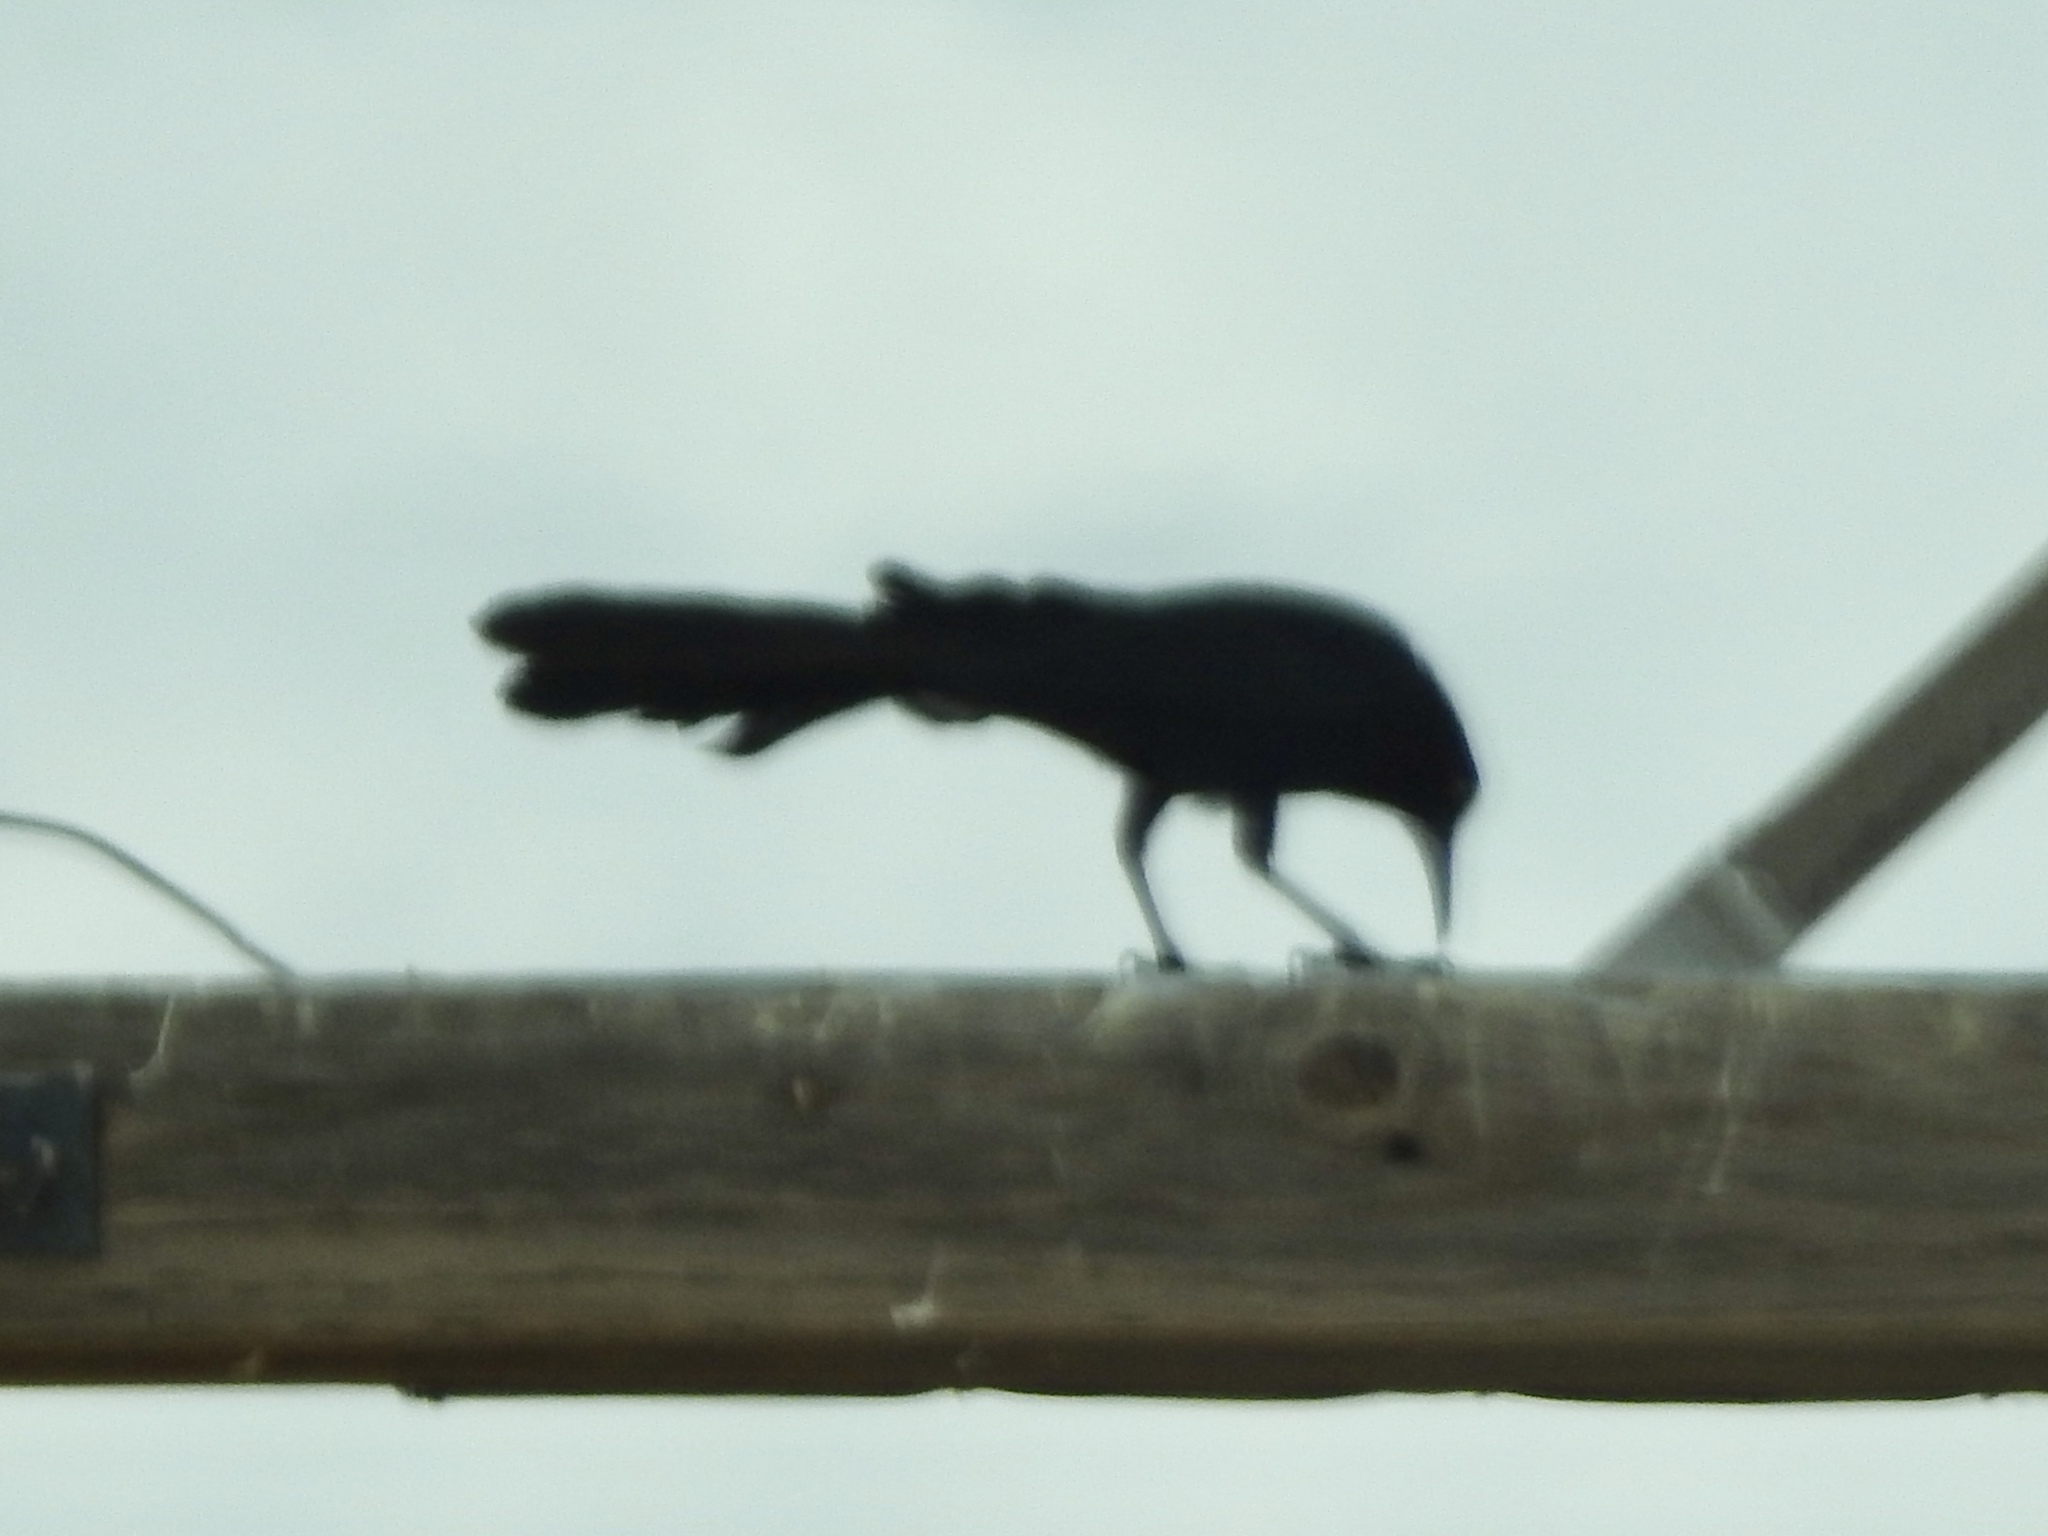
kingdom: Animalia
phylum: Chordata
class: Aves
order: Passeriformes
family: Icteridae
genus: Quiscalus
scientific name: Quiscalus mexicanus
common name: Great-tailed grackle
